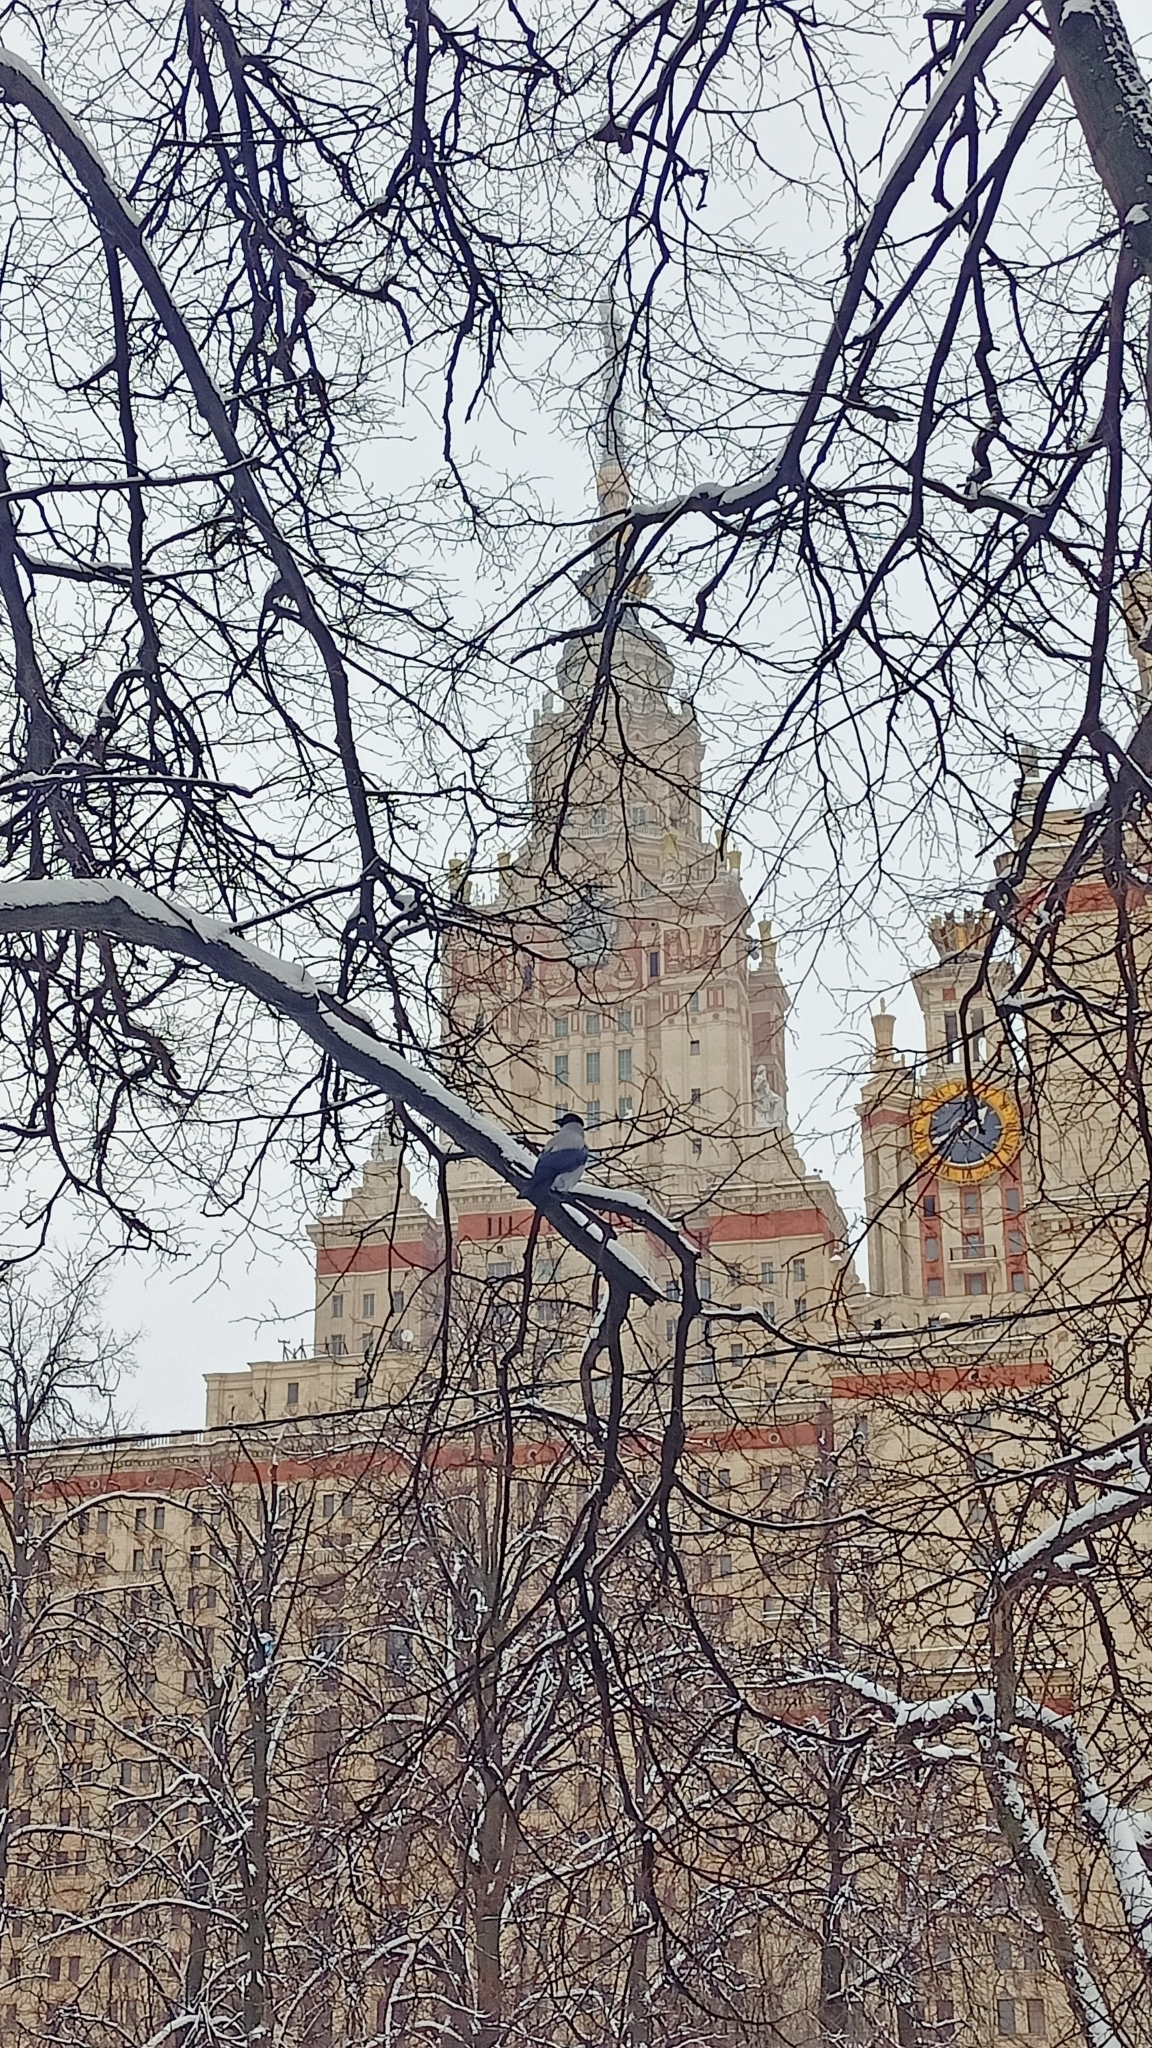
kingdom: Animalia
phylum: Chordata
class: Aves
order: Passeriformes
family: Corvidae
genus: Corvus
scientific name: Corvus cornix
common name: Hooded crow
